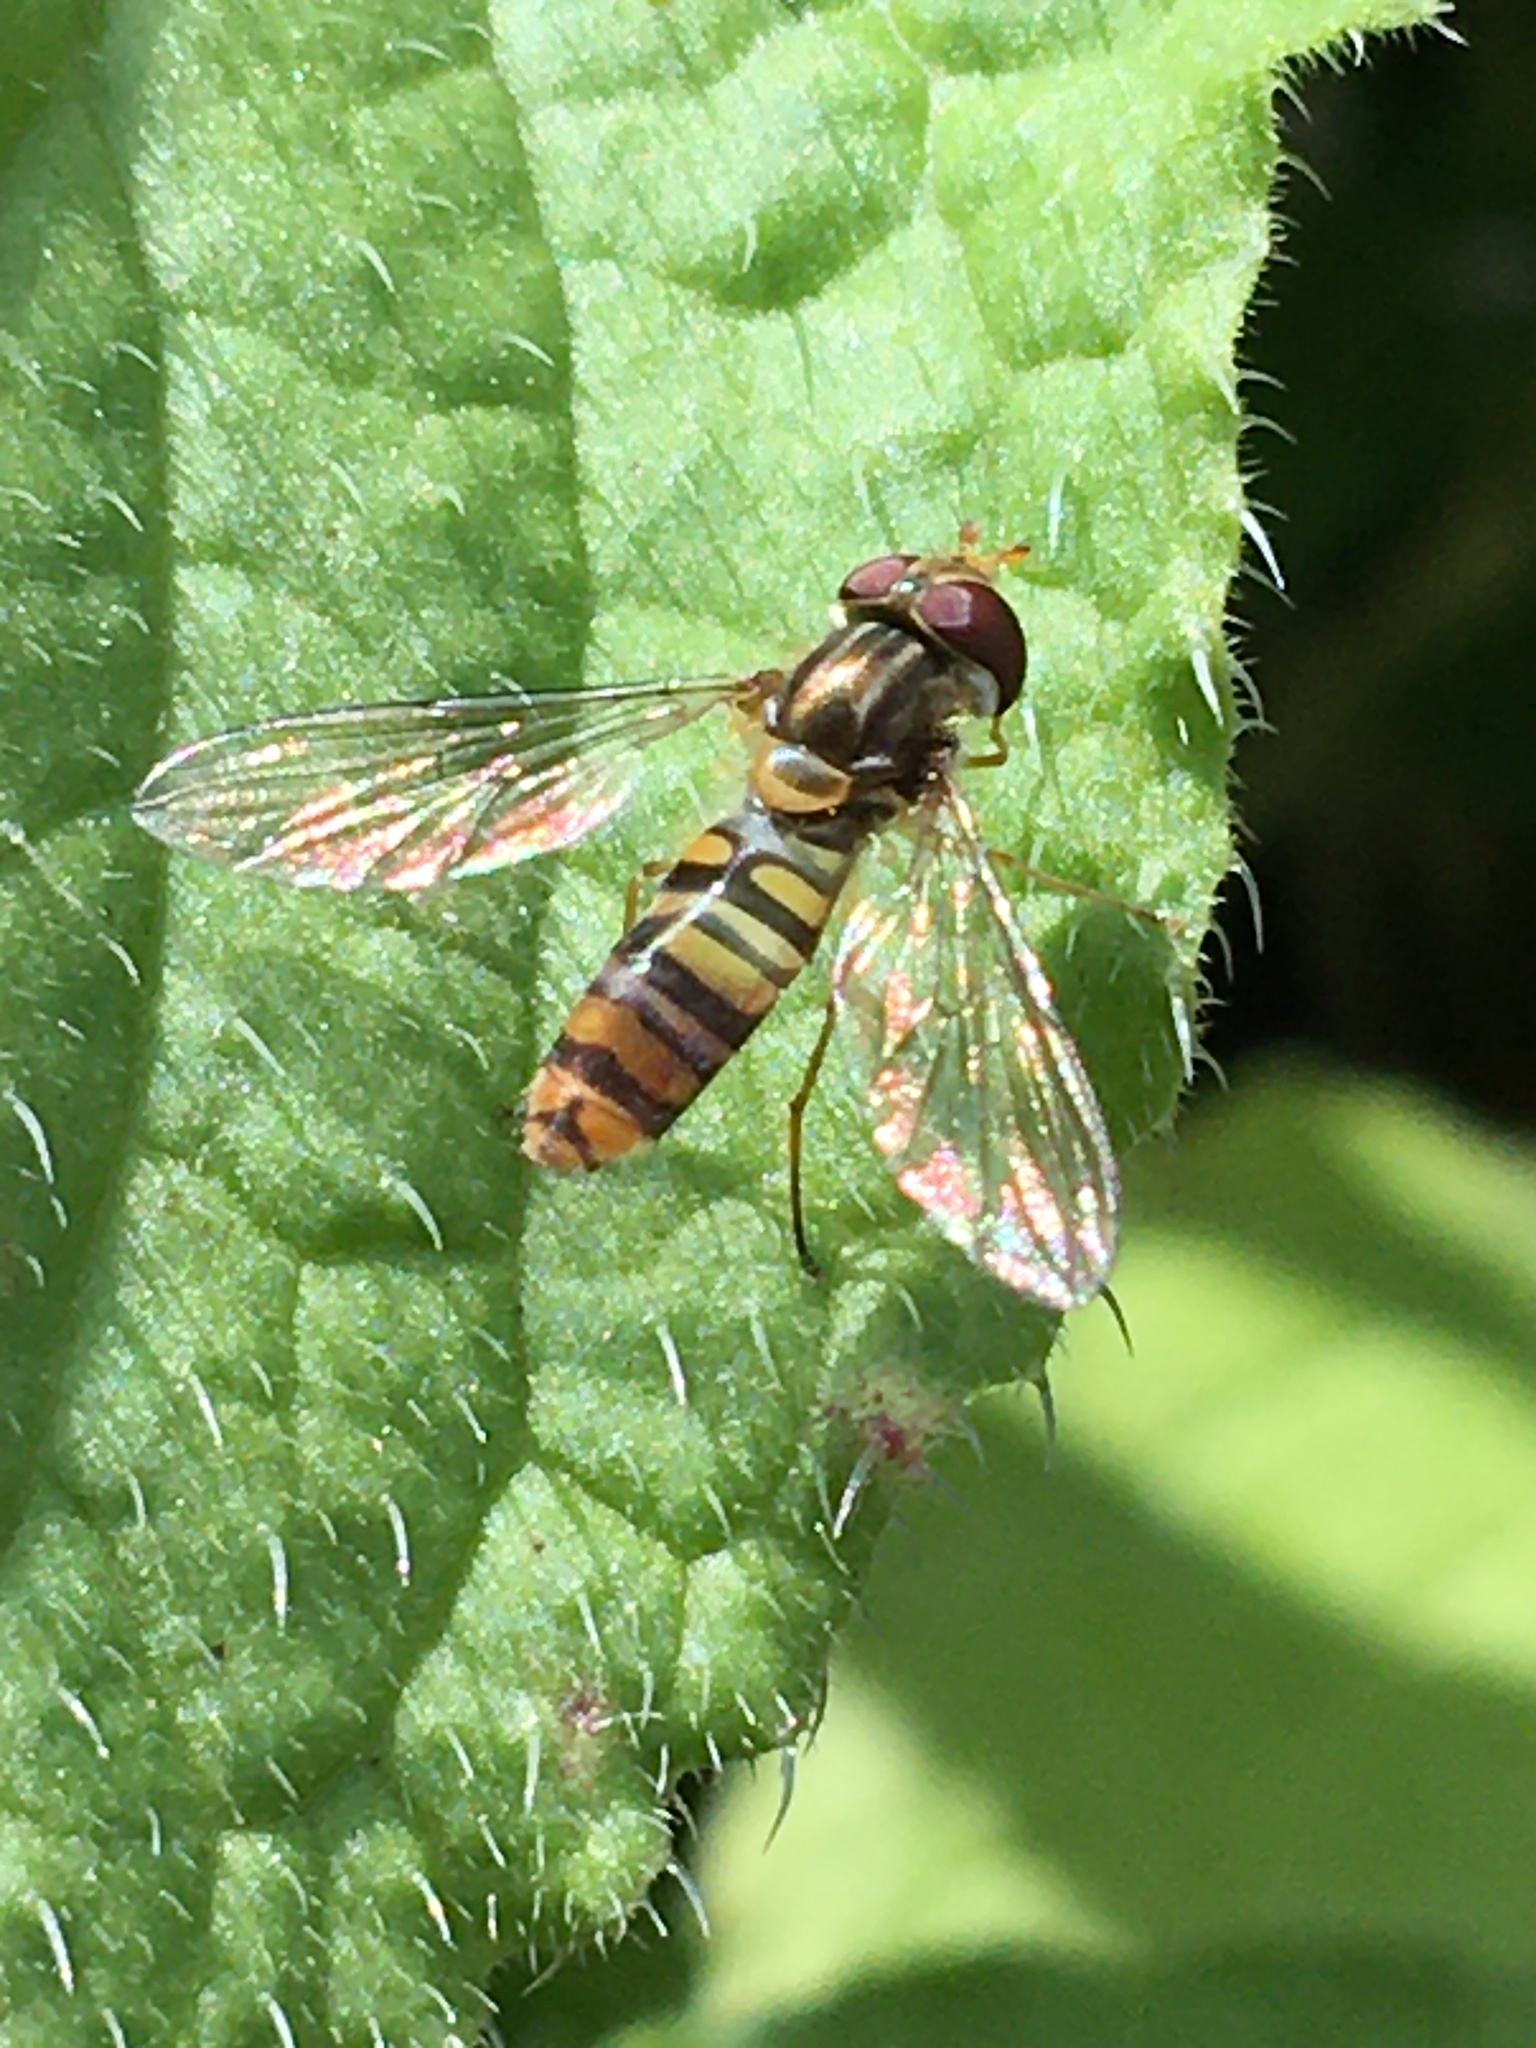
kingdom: Animalia
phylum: Arthropoda
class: Insecta
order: Diptera
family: Syrphidae
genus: Episyrphus
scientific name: Episyrphus balteatus
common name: Marmalade hoverfly
